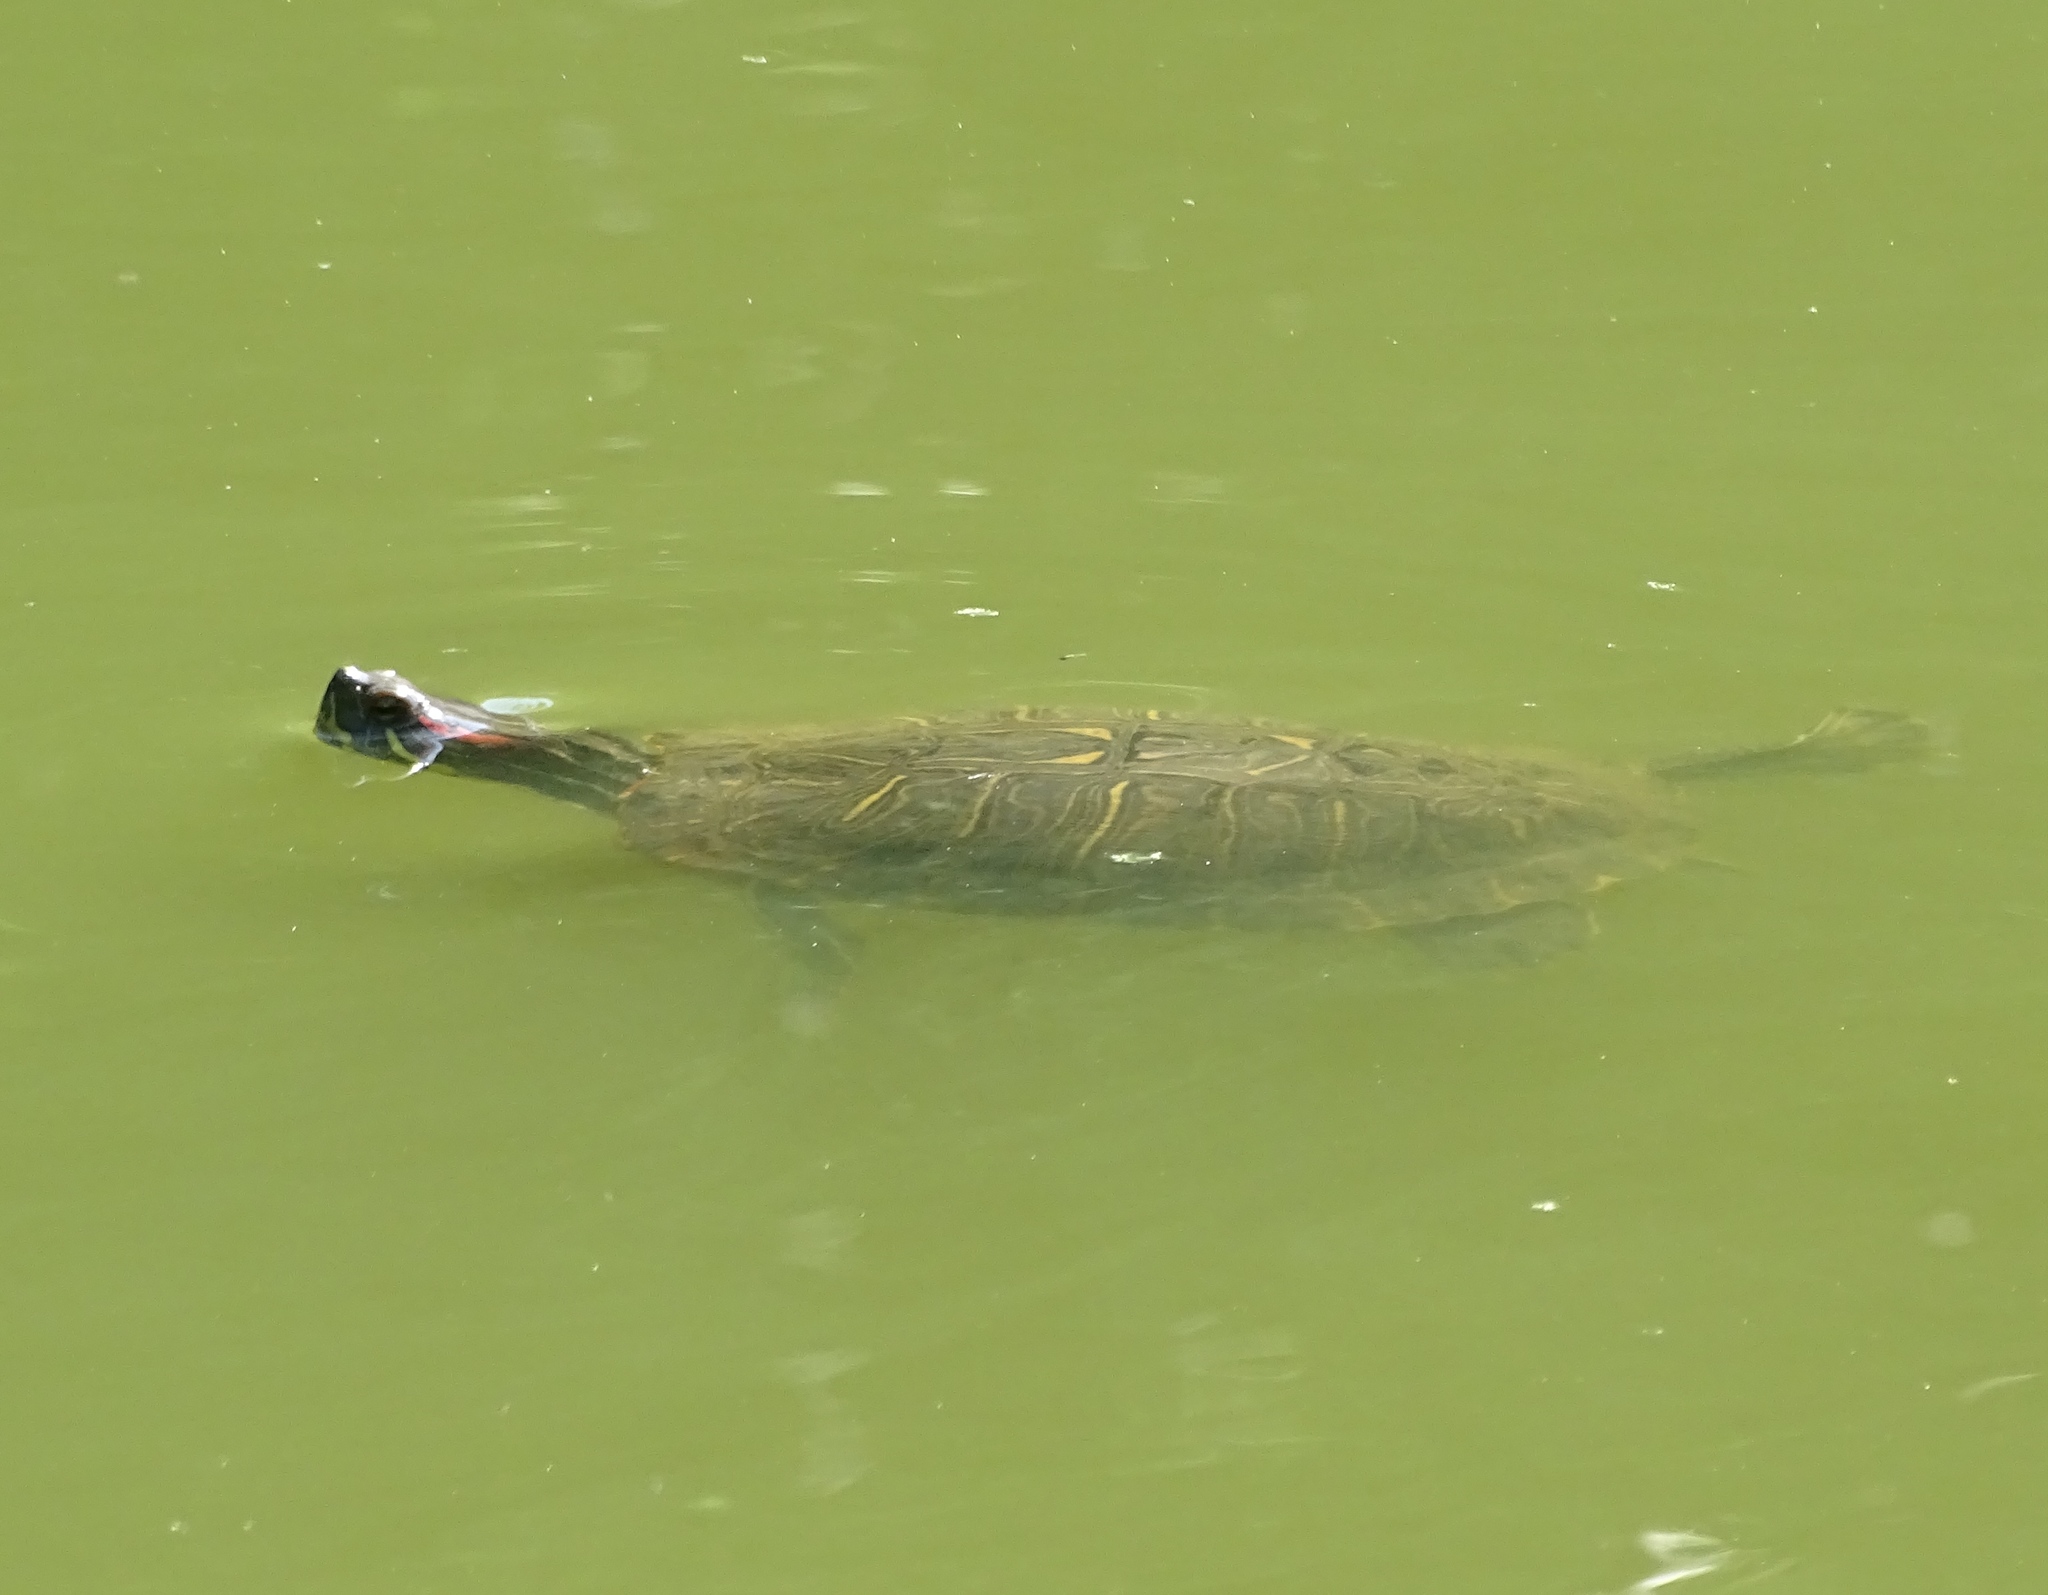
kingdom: Animalia
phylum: Chordata
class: Testudines
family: Emydidae
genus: Trachemys
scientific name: Trachemys scripta
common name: Slider
